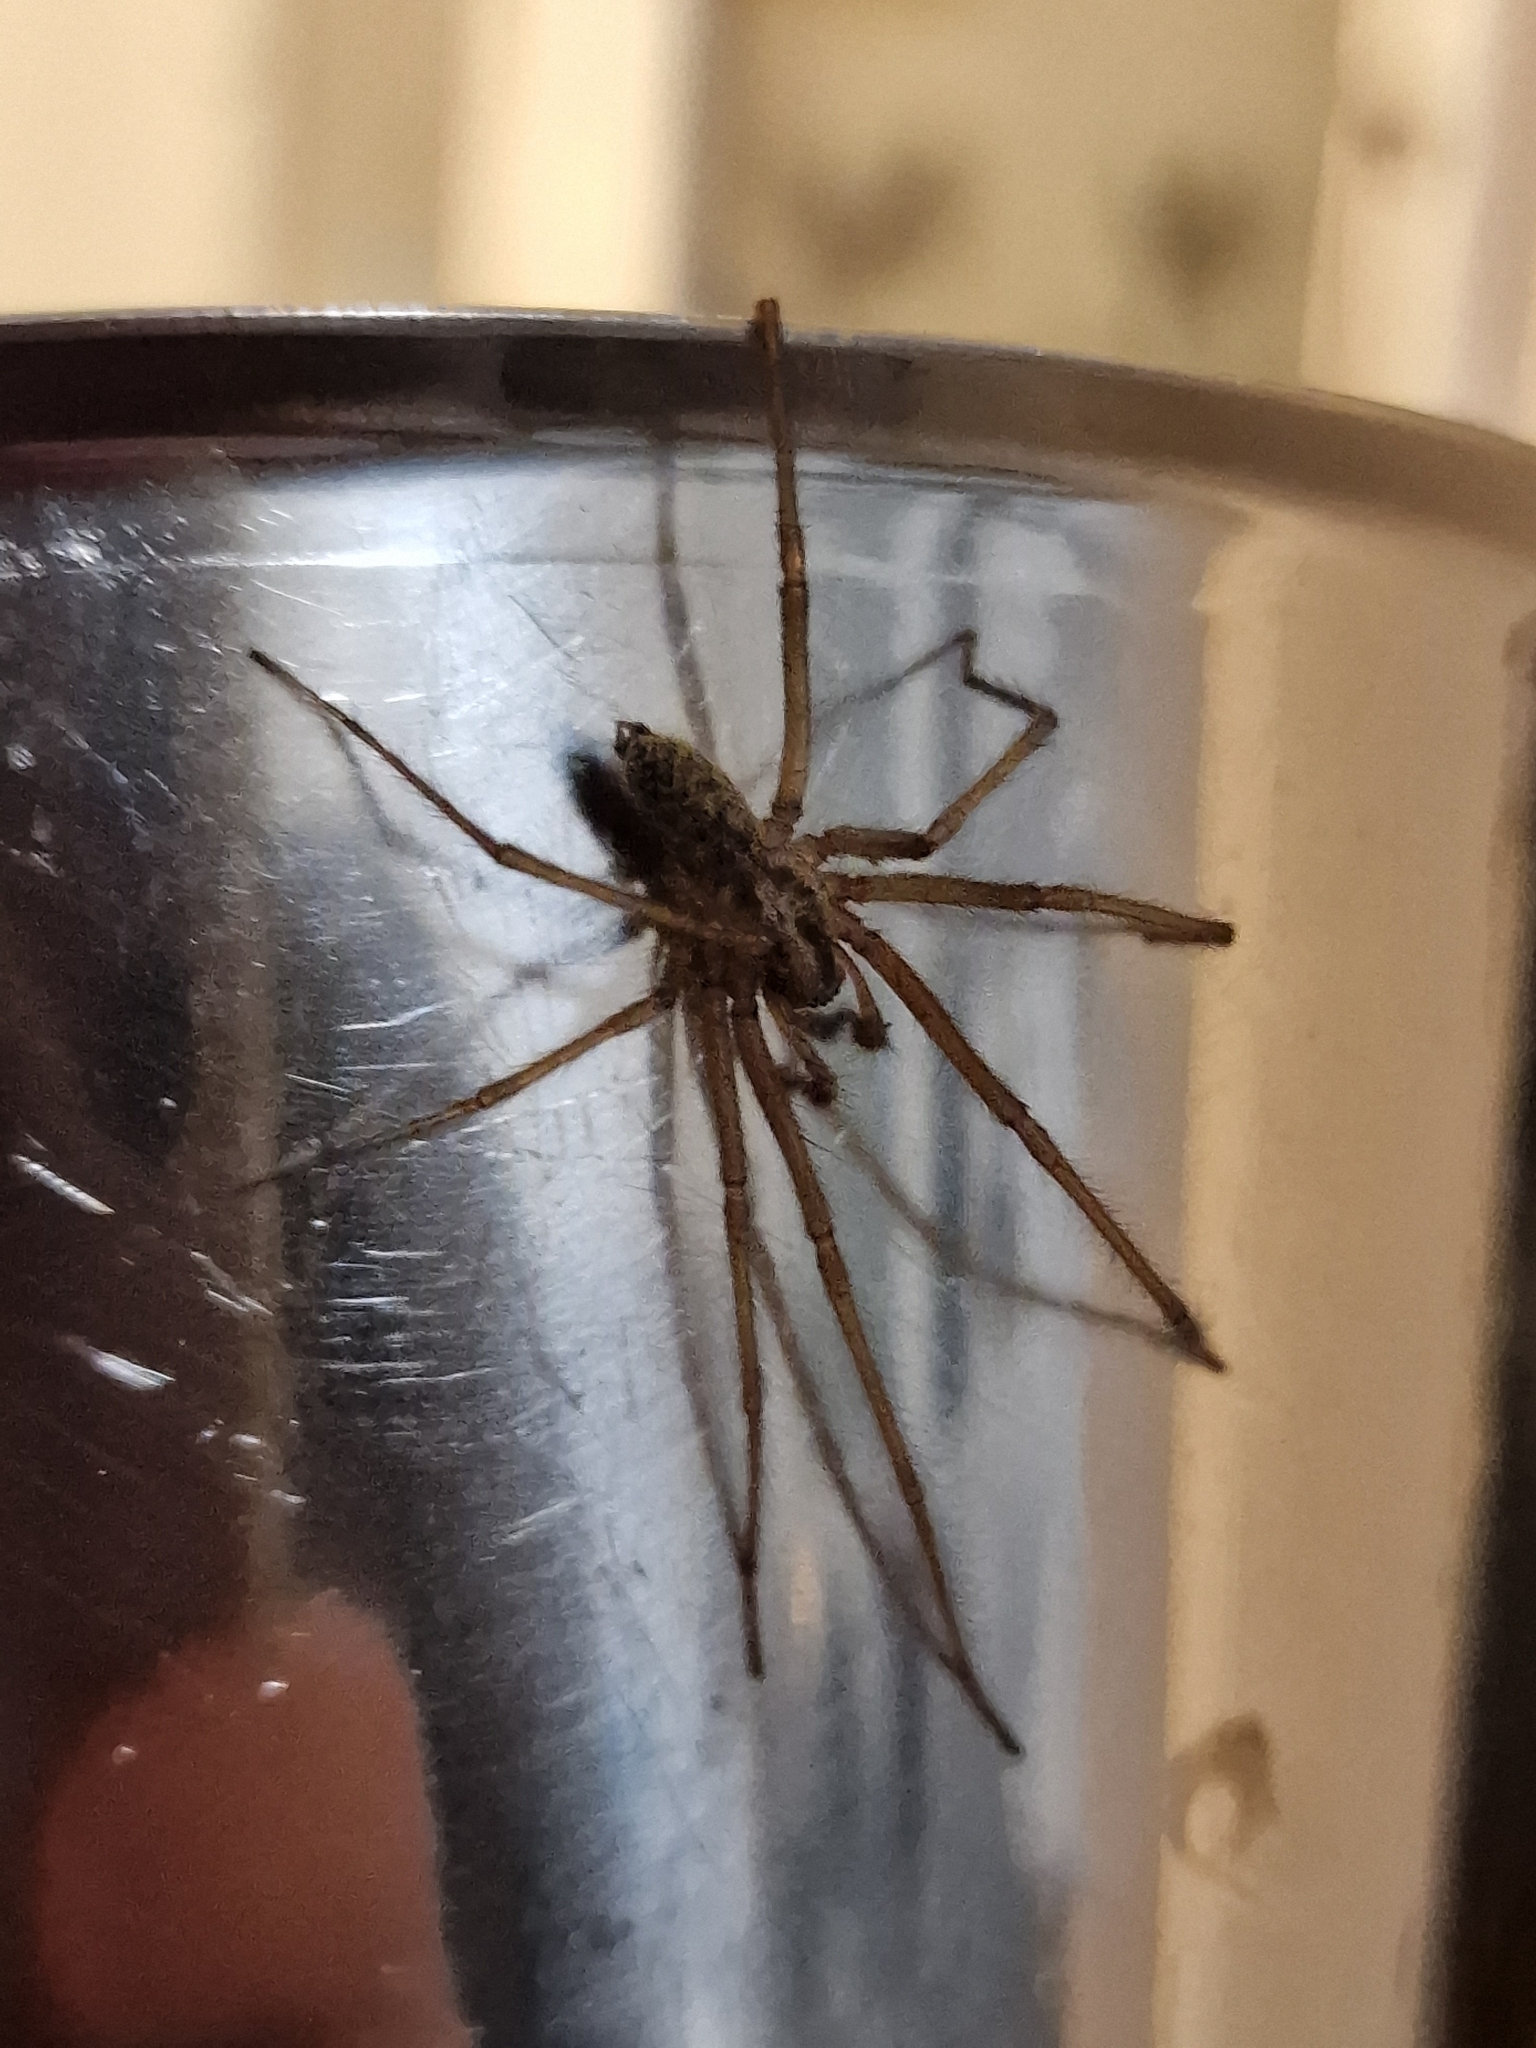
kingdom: Animalia
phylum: Arthropoda
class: Arachnida
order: Araneae
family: Agelenidae
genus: Eratigena
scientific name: Eratigena atrica
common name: Giant house spider
